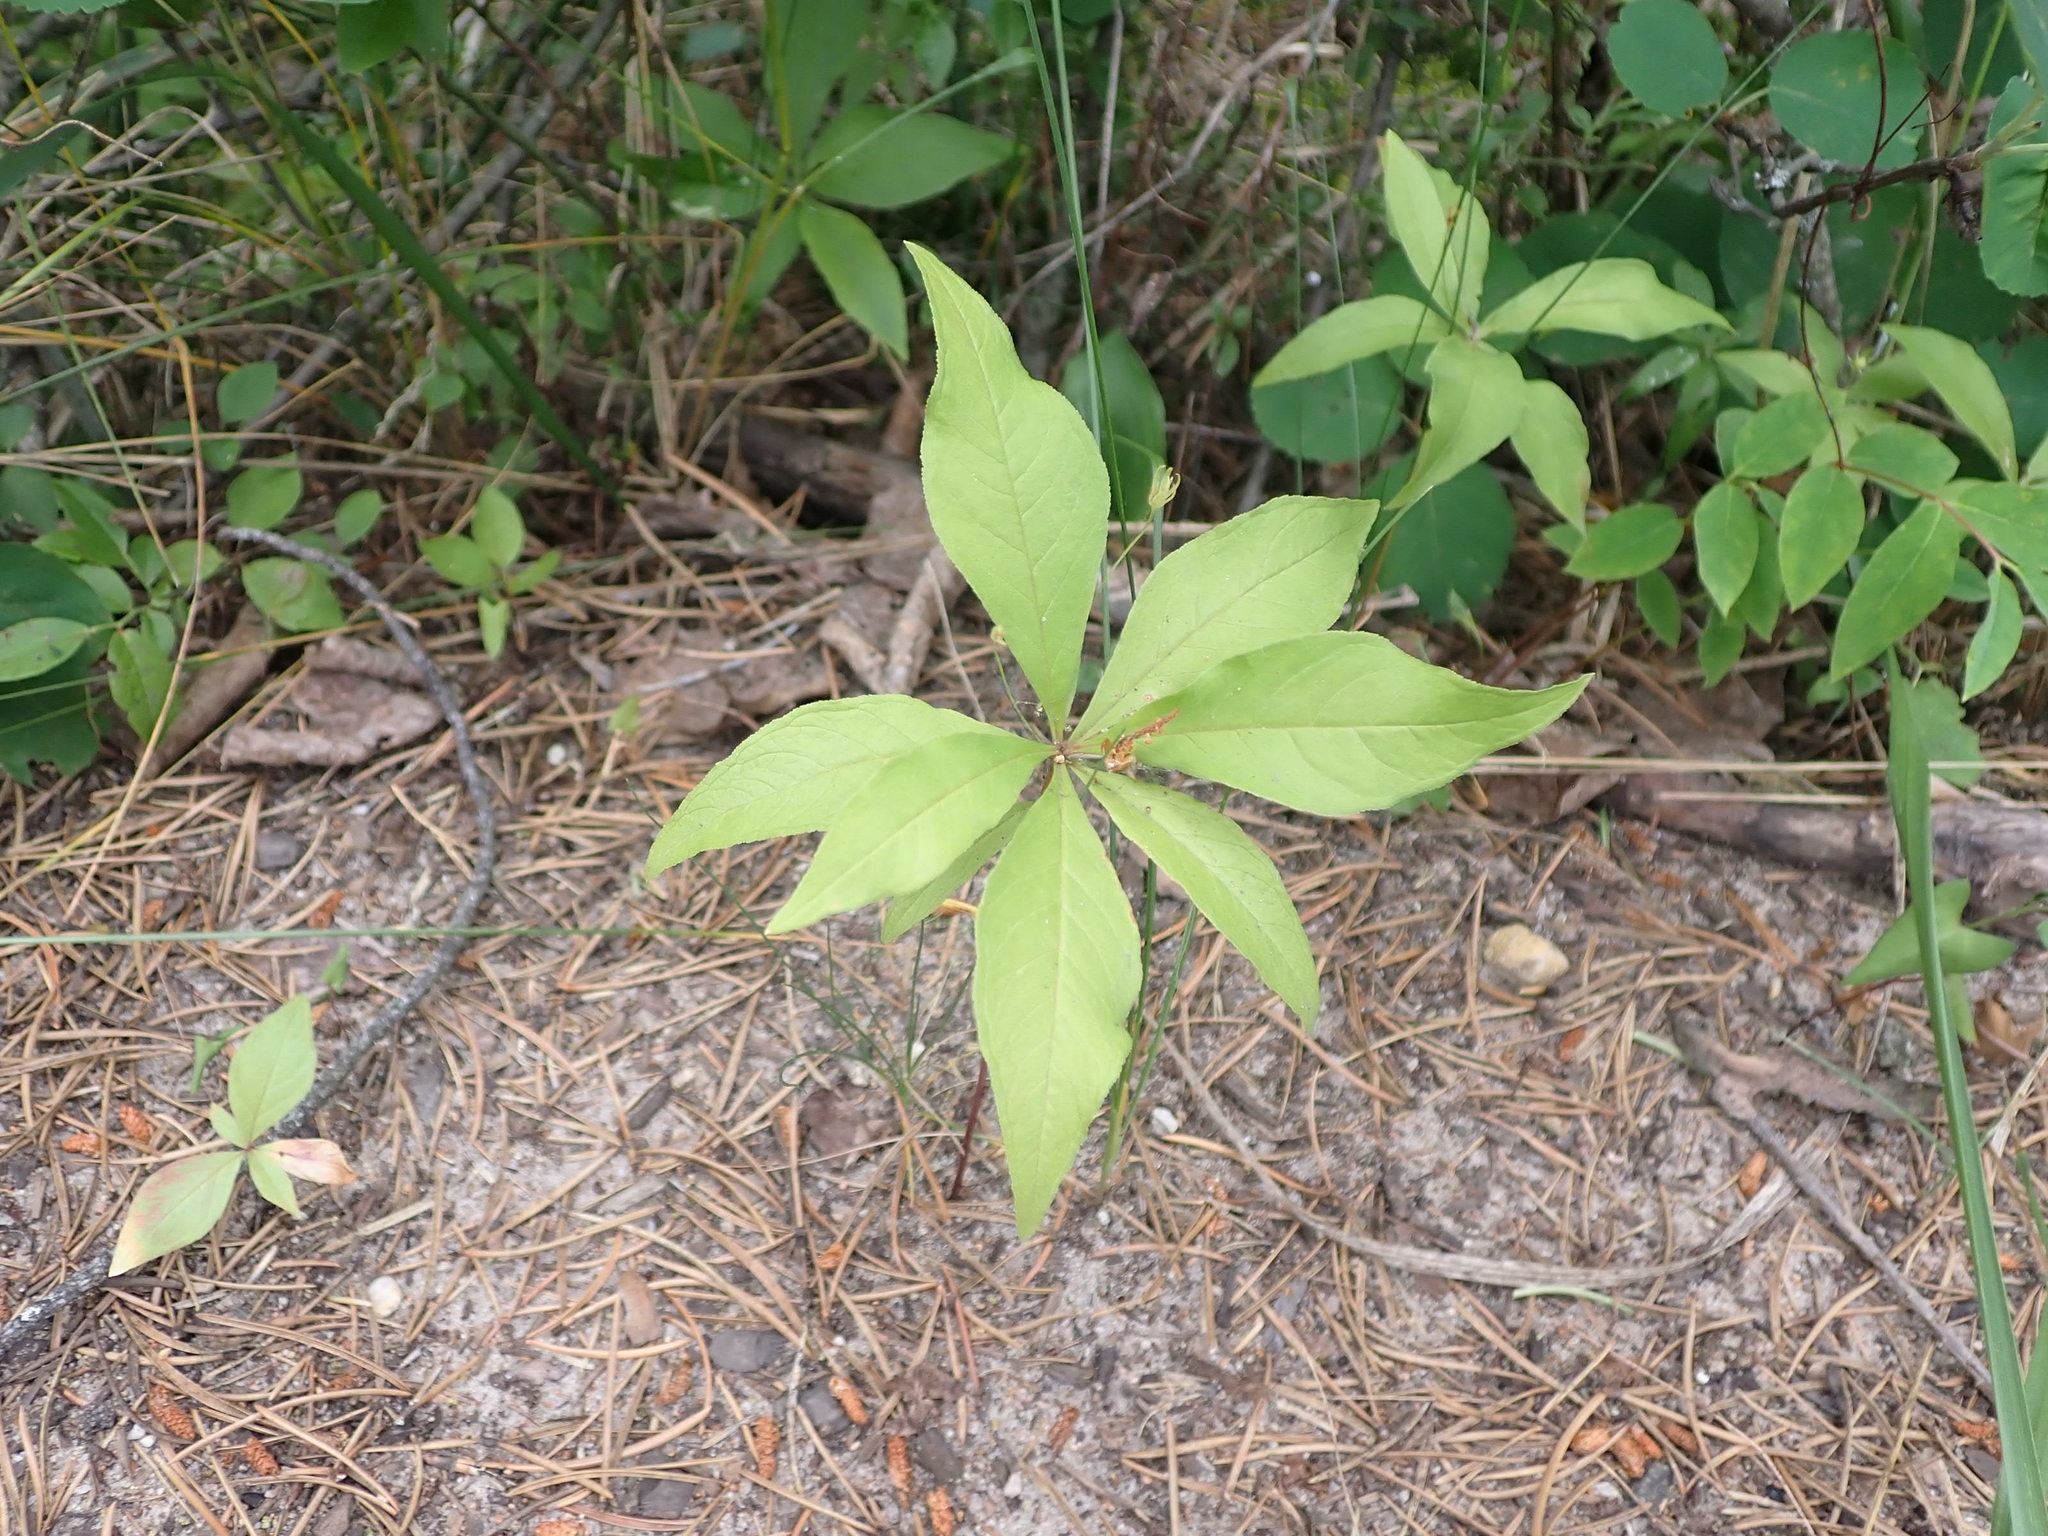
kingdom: Plantae
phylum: Tracheophyta
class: Magnoliopsida
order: Ericales
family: Primulaceae
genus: Lysimachia
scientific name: Lysimachia borealis
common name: American starflower
